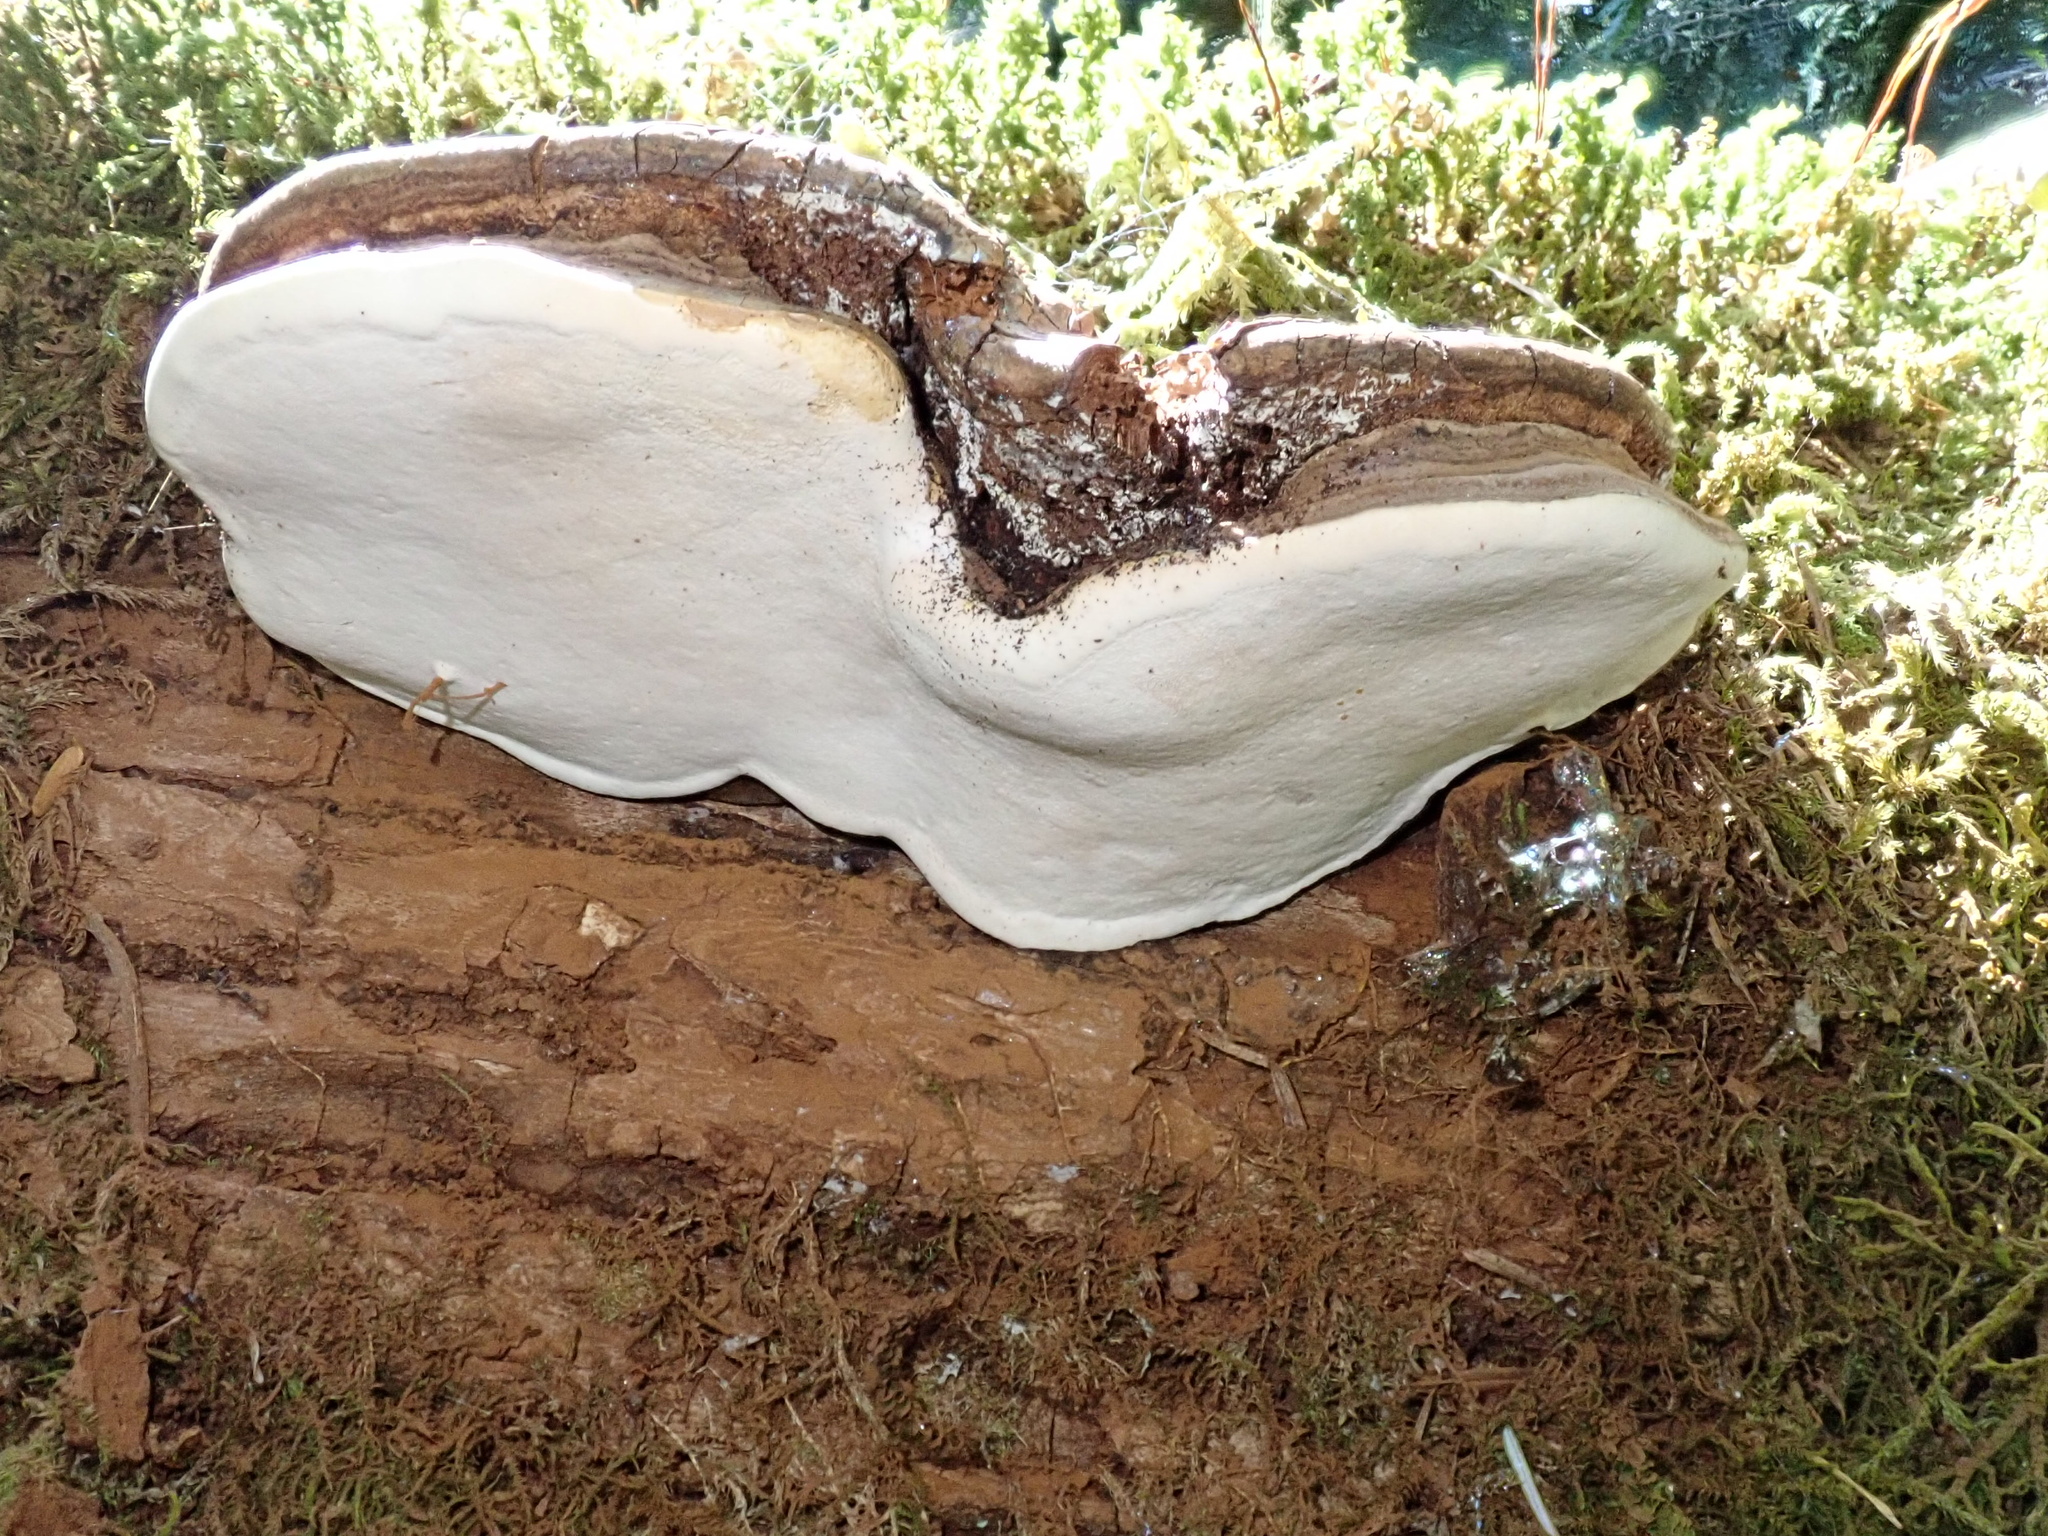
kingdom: Fungi
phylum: Basidiomycota
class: Agaricomycetes
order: Polyporales
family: Polyporaceae
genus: Ganoderma
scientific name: Ganoderma applanatum
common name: Artist's bracket
